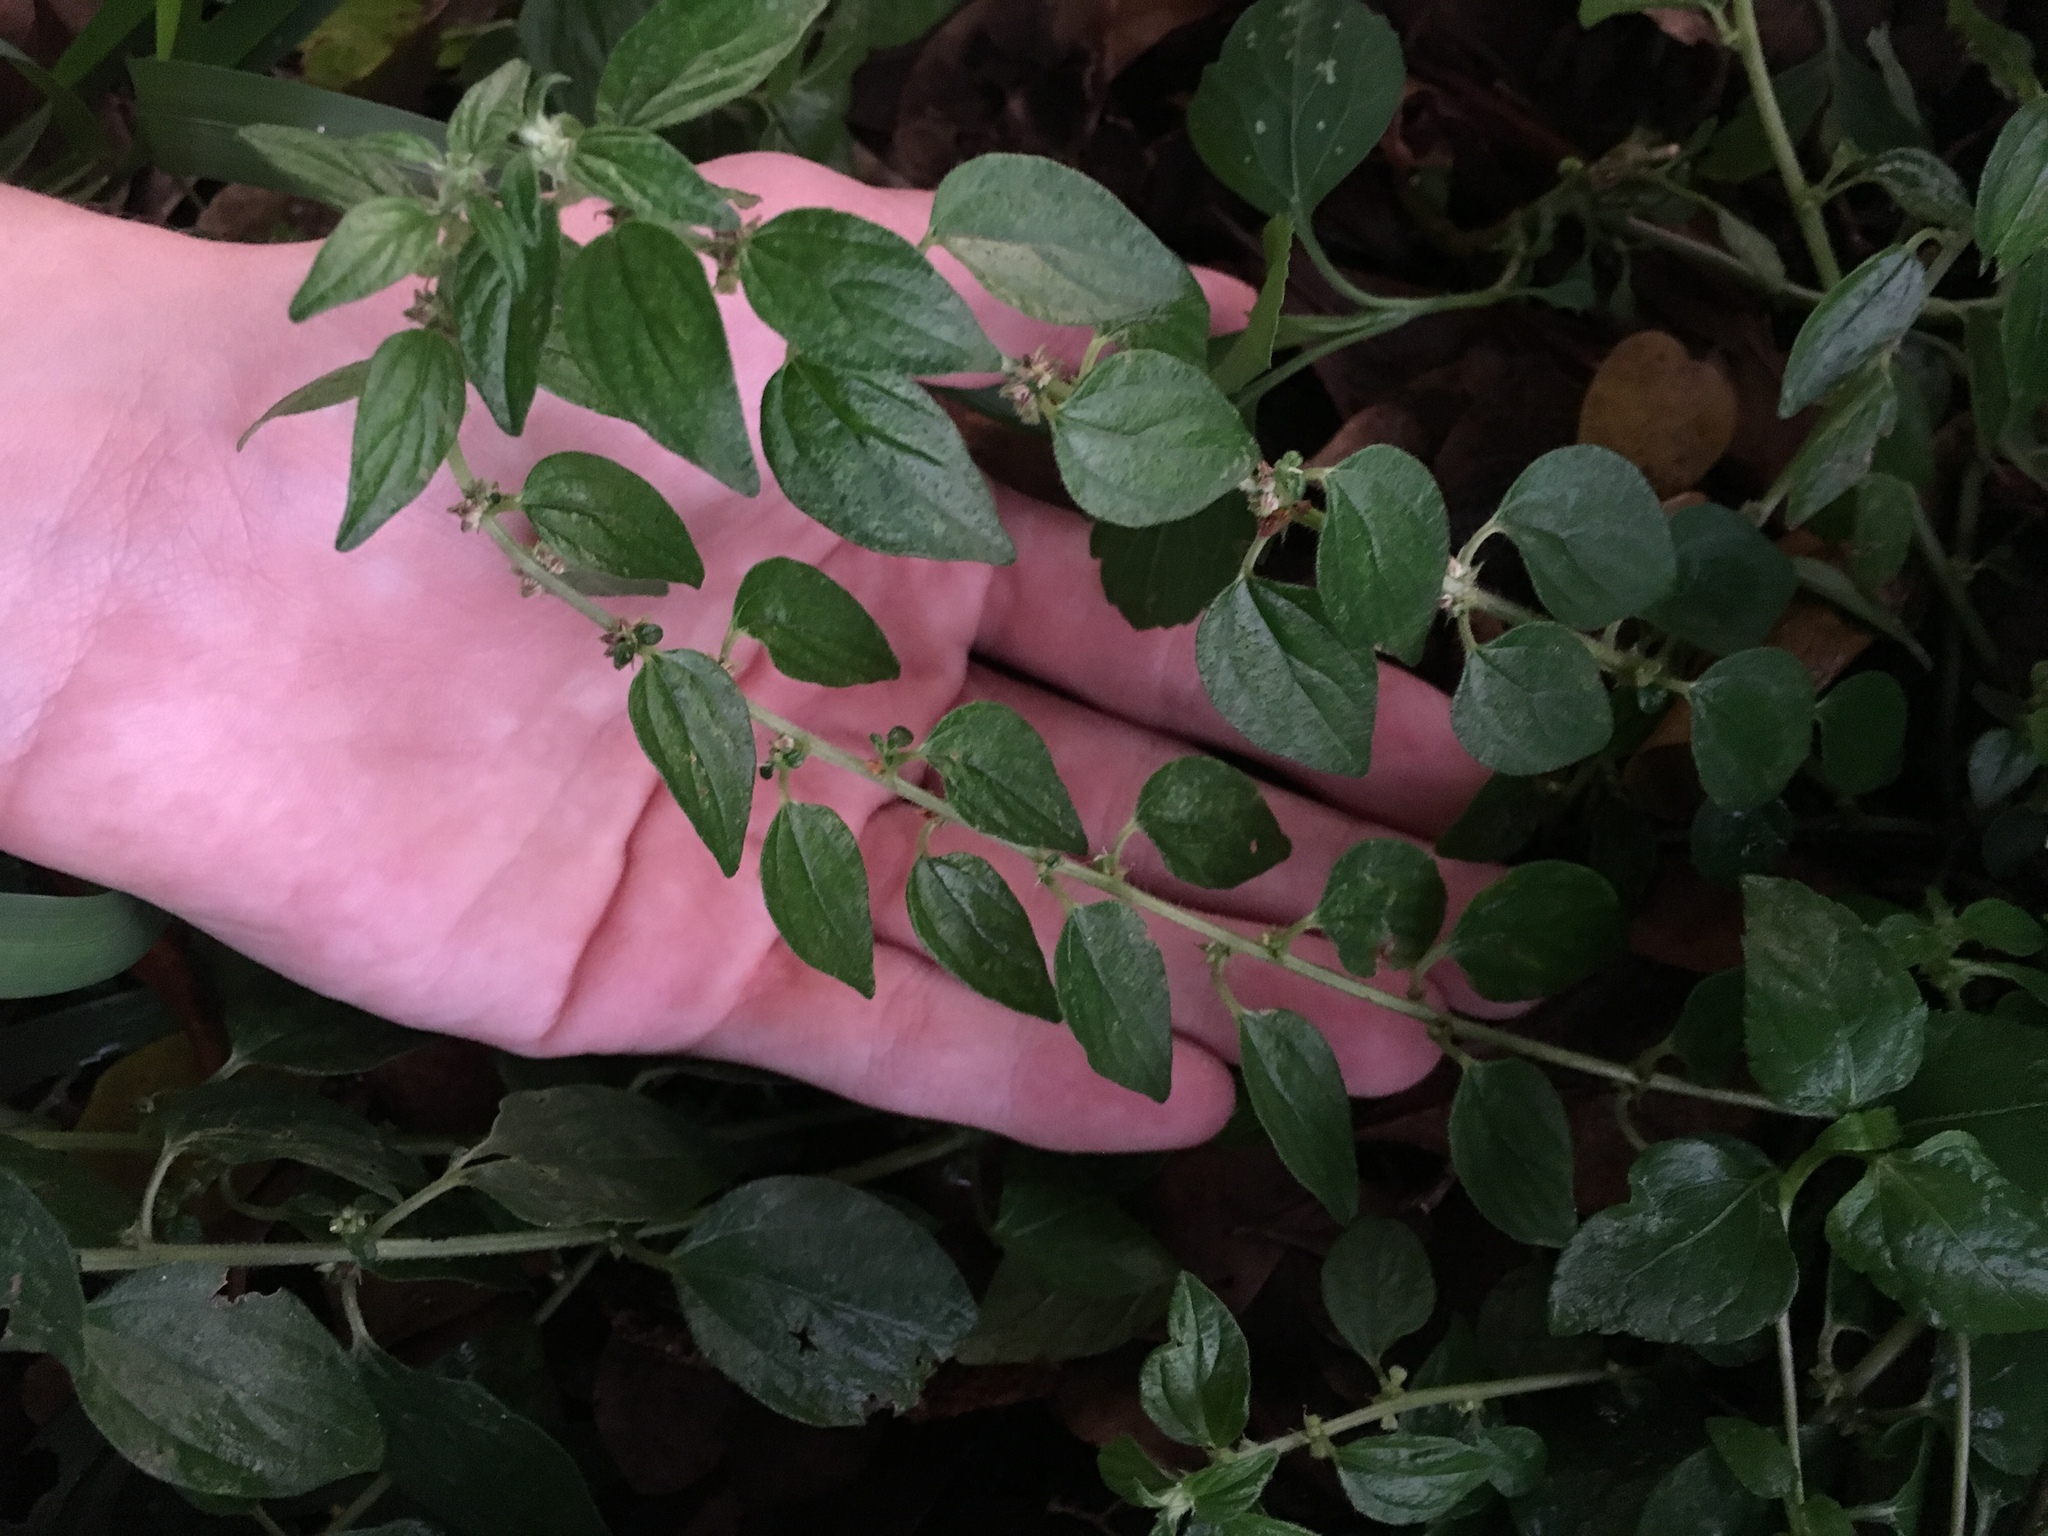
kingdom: Plantae
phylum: Tracheophyta
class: Magnoliopsida
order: Rosales
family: Urticaceae
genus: Pouzolzia
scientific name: Pouzolzia zeylanica
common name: Graceful pouzolzsbush
